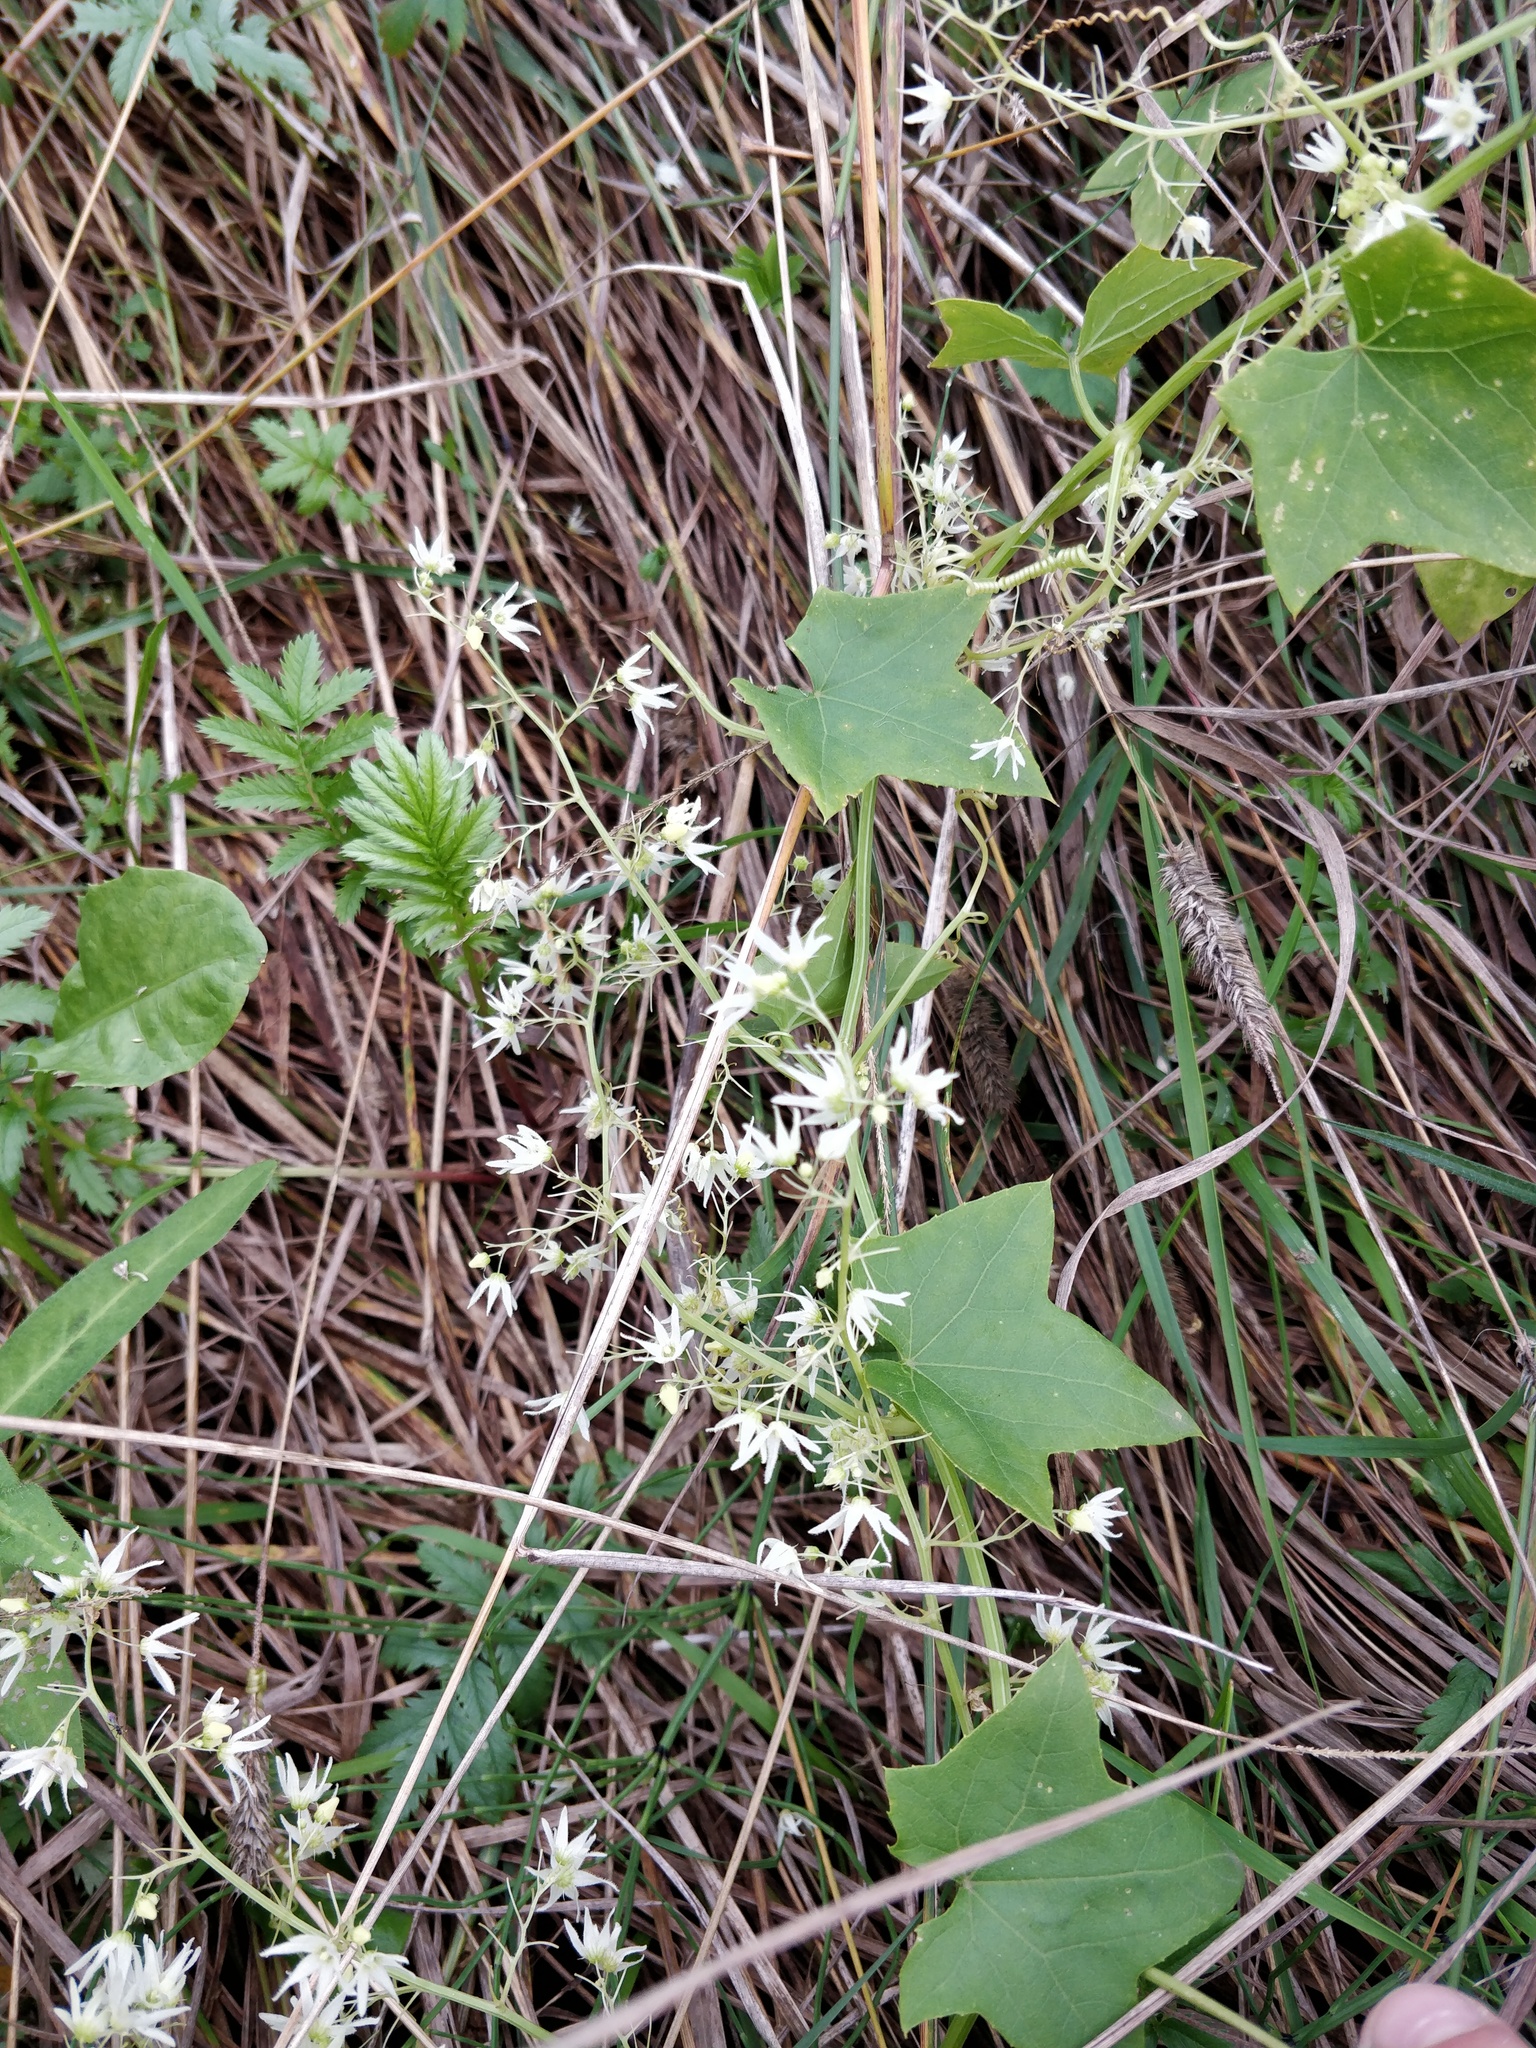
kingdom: Plantae
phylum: Tracheophyta
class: Magnoliopsida
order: Cucurbitales
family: Cucurbitaceae
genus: Echinocystis
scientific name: Echinocystis lobata
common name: Wild cucumber
